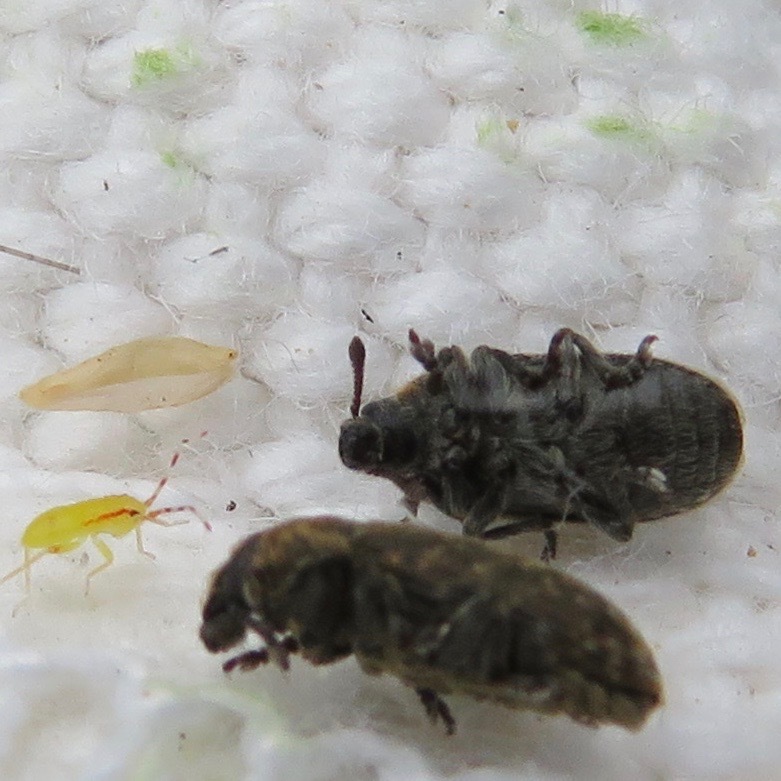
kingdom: Animalia
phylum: Arthropoda
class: Insecta
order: Coleoptera
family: Curculionidae
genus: Rhinocyllus
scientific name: Rhinocyllus conicus
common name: Weevil
